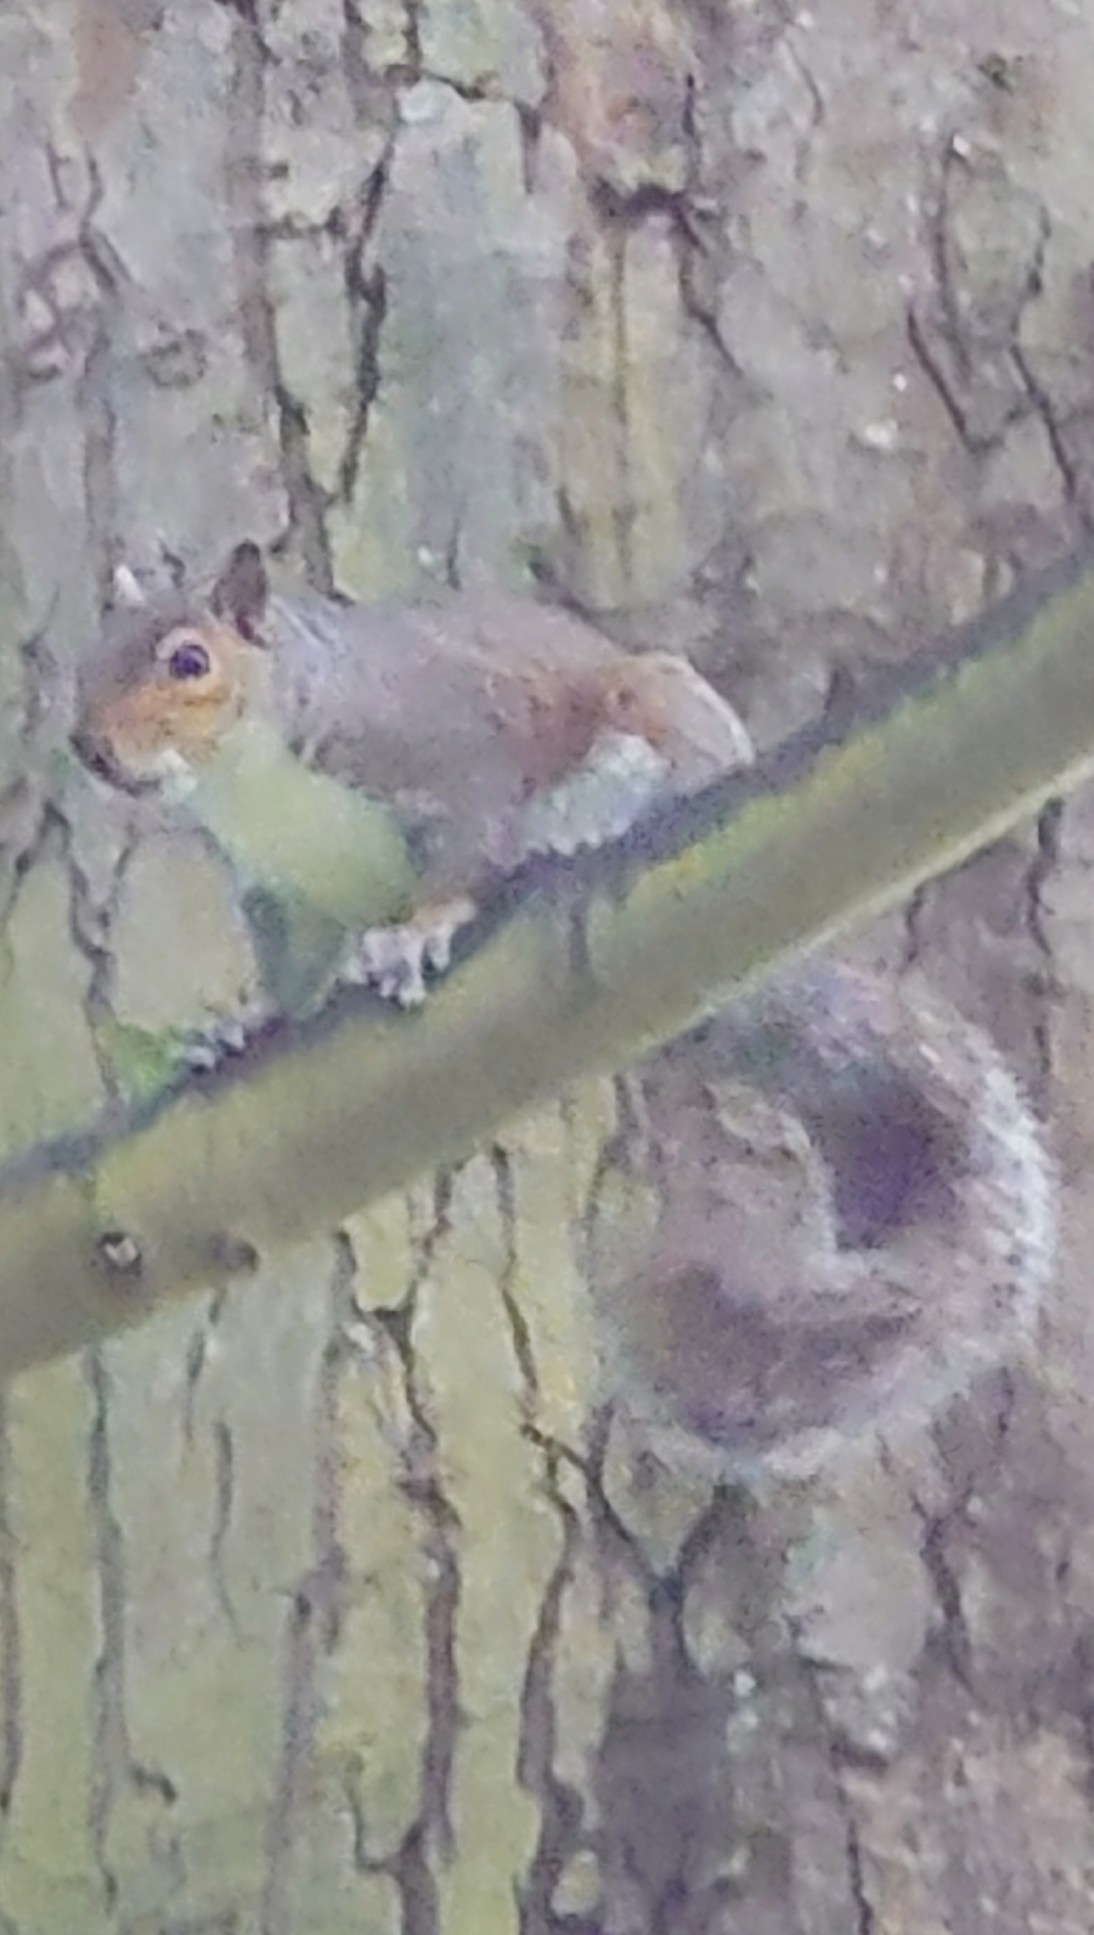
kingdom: Animalia
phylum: Chordata
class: Mammalia
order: Rodentia
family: Sciuridae
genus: Sciurus
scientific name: Sciurus carolinensis
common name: Eastern gray squirrel
